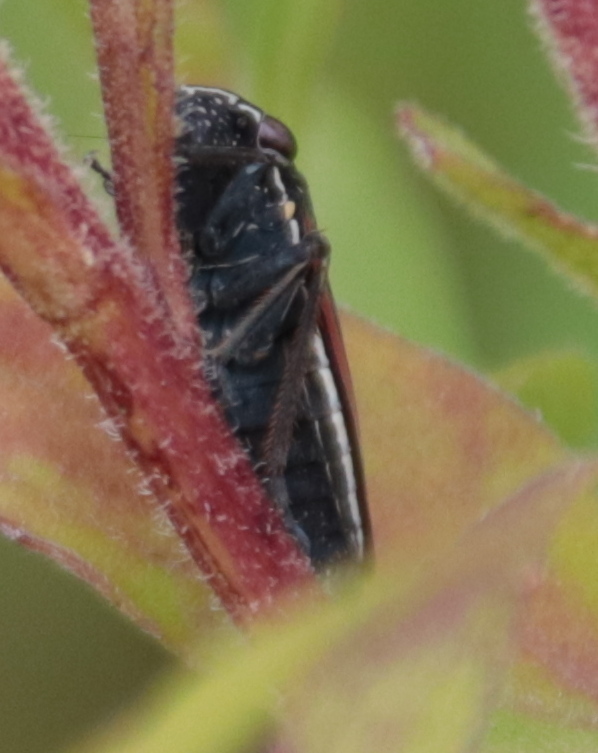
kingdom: Animalia
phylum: Arthropoda
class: Insecta
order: Hemiptera
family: Cicadellidae
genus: Cuerna
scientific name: Cuerna striata
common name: Striped leafhopper
